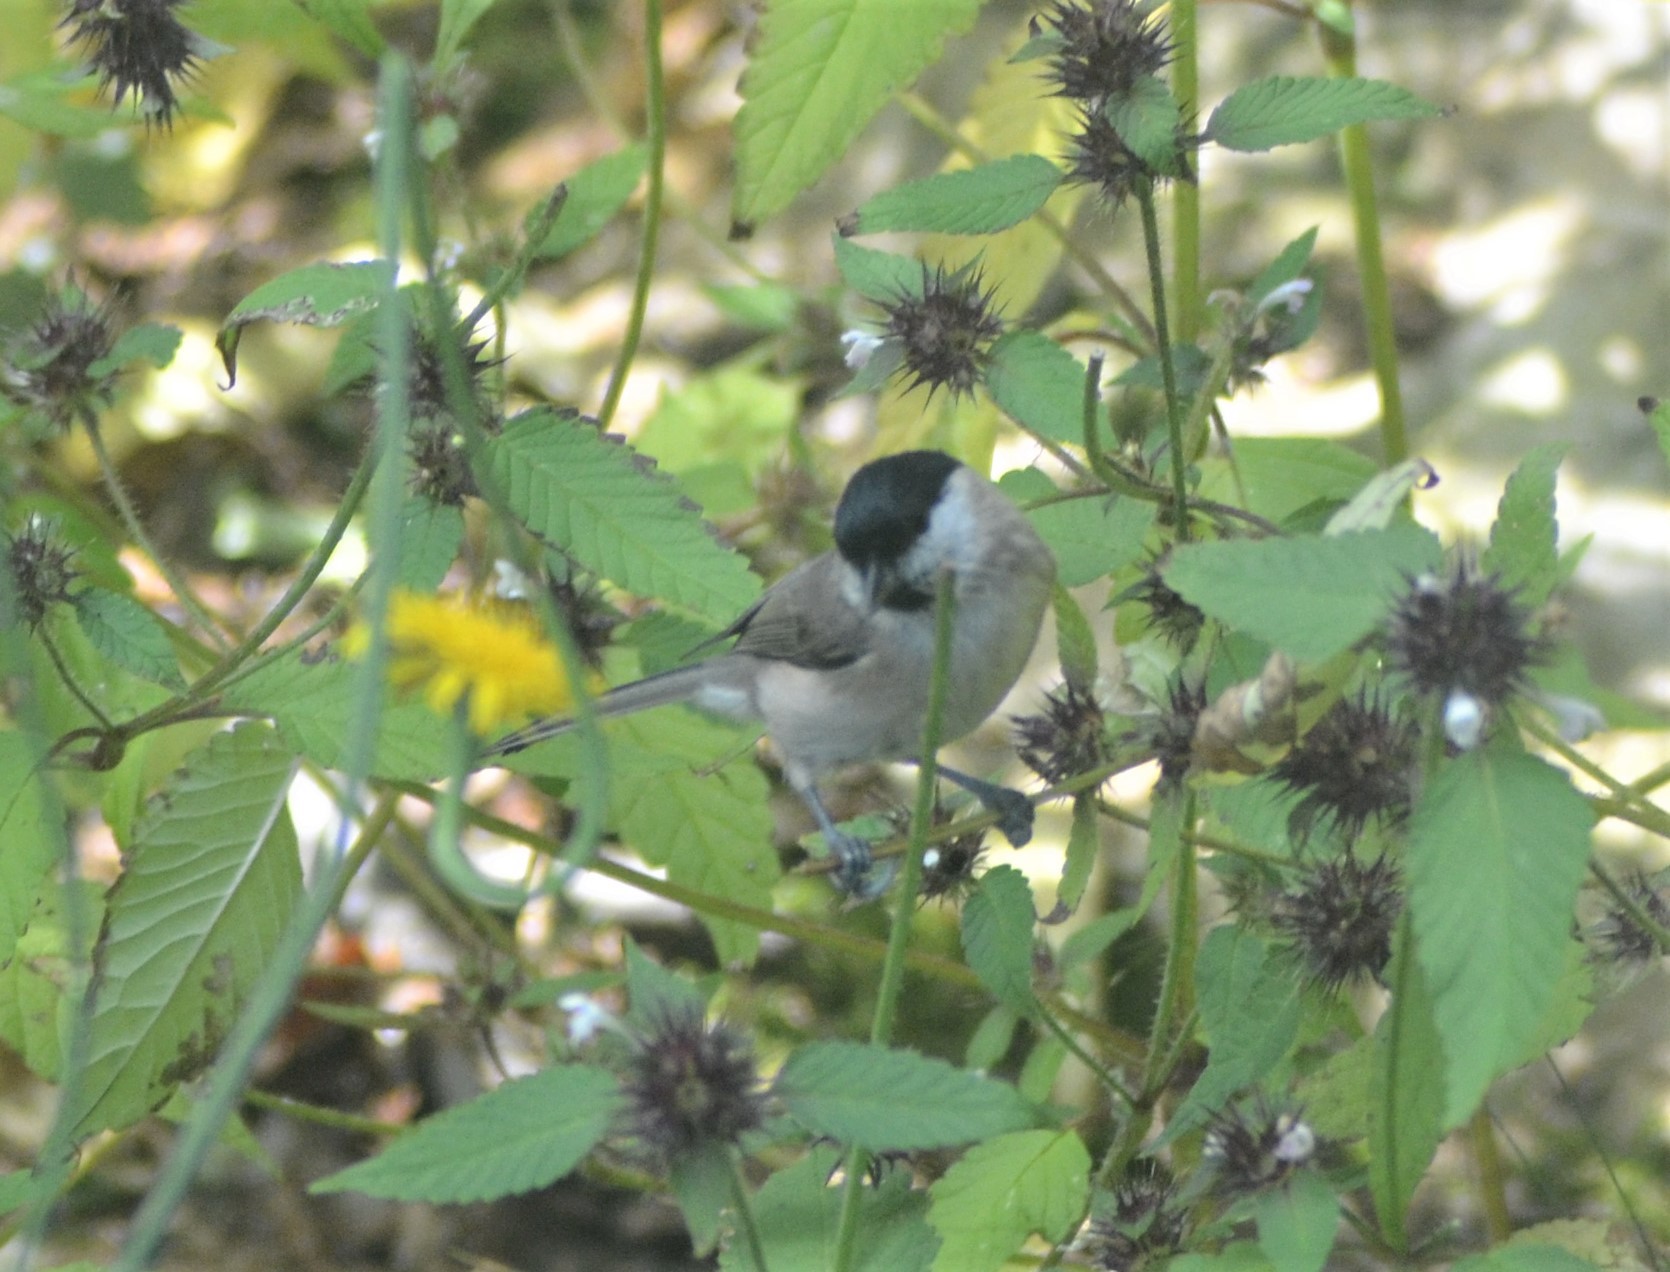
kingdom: Animalia
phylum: Chordata
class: Aves
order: Passeriformes
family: Paridae
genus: Poecile
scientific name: Poecile palustris
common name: Marsh tit
